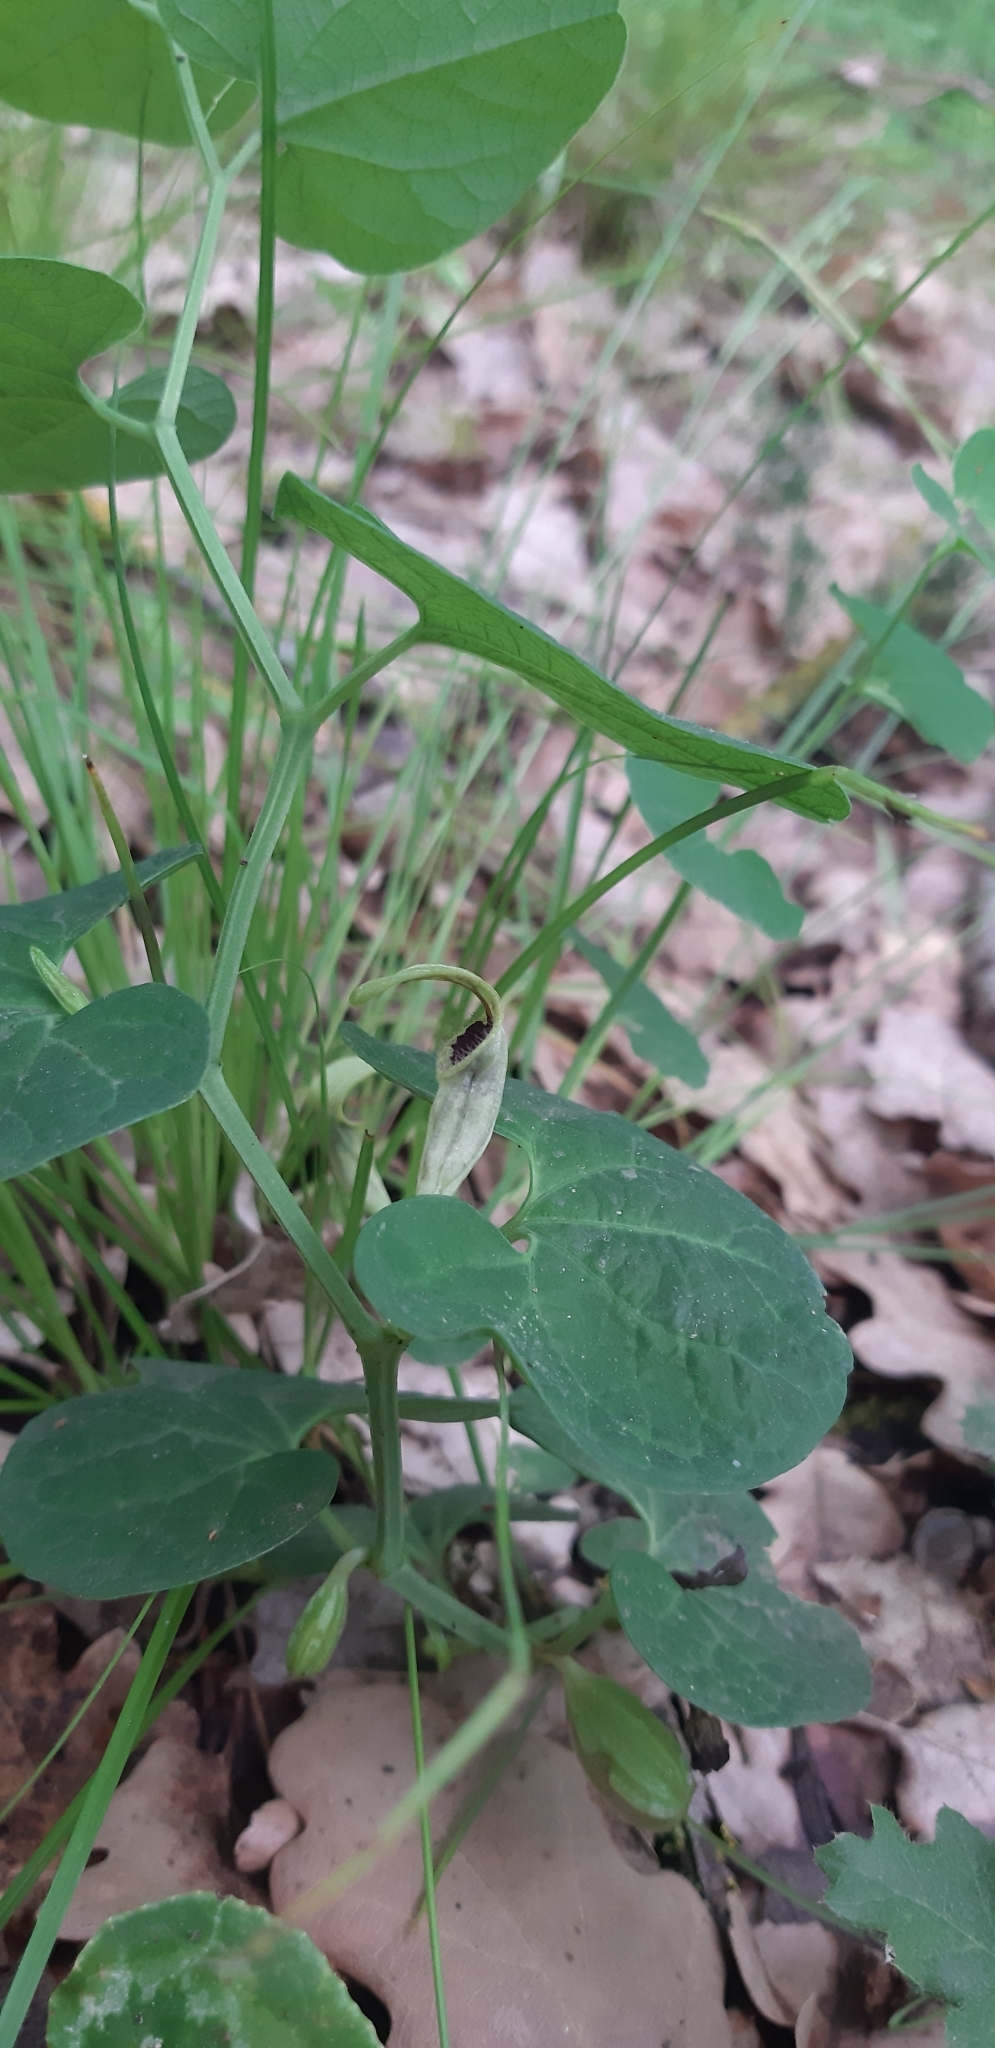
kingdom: Plantae
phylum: Tracheophyta
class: Magnoliopsida
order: Piperales
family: Aristolochiaceae
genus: Aristolochia
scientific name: Aristolochia lutea
